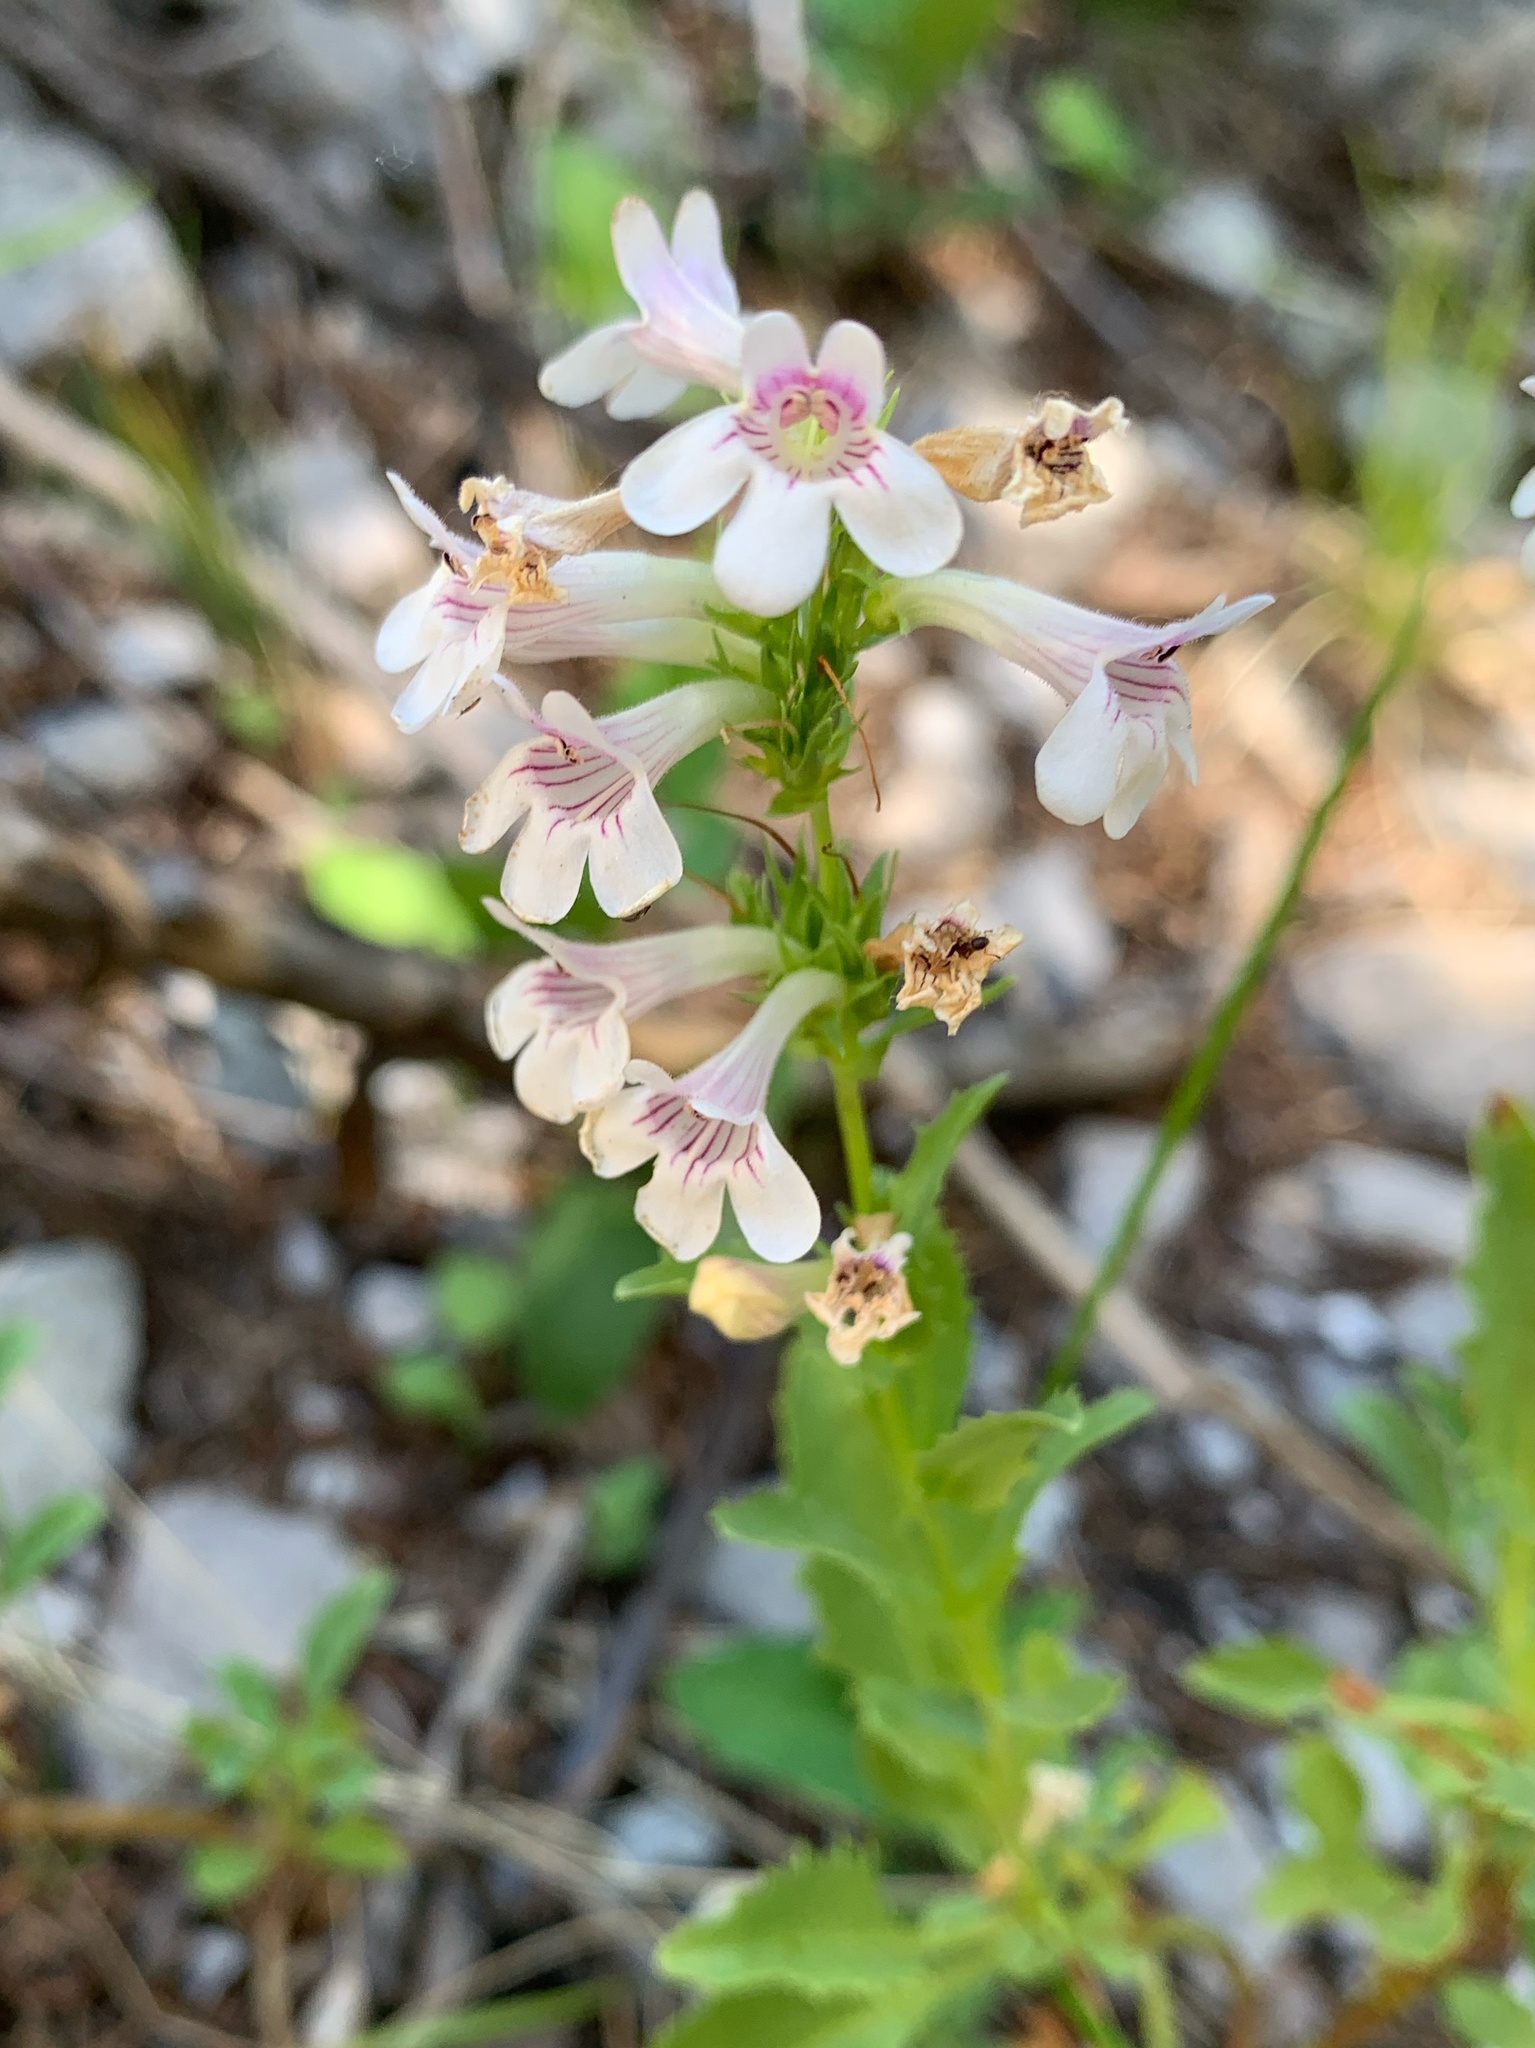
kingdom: Plantae
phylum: Tracheophyta
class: Magnoliopsida
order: Lamiales
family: Plantaginaceae
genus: Penstemon
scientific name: Penstemon deustus
